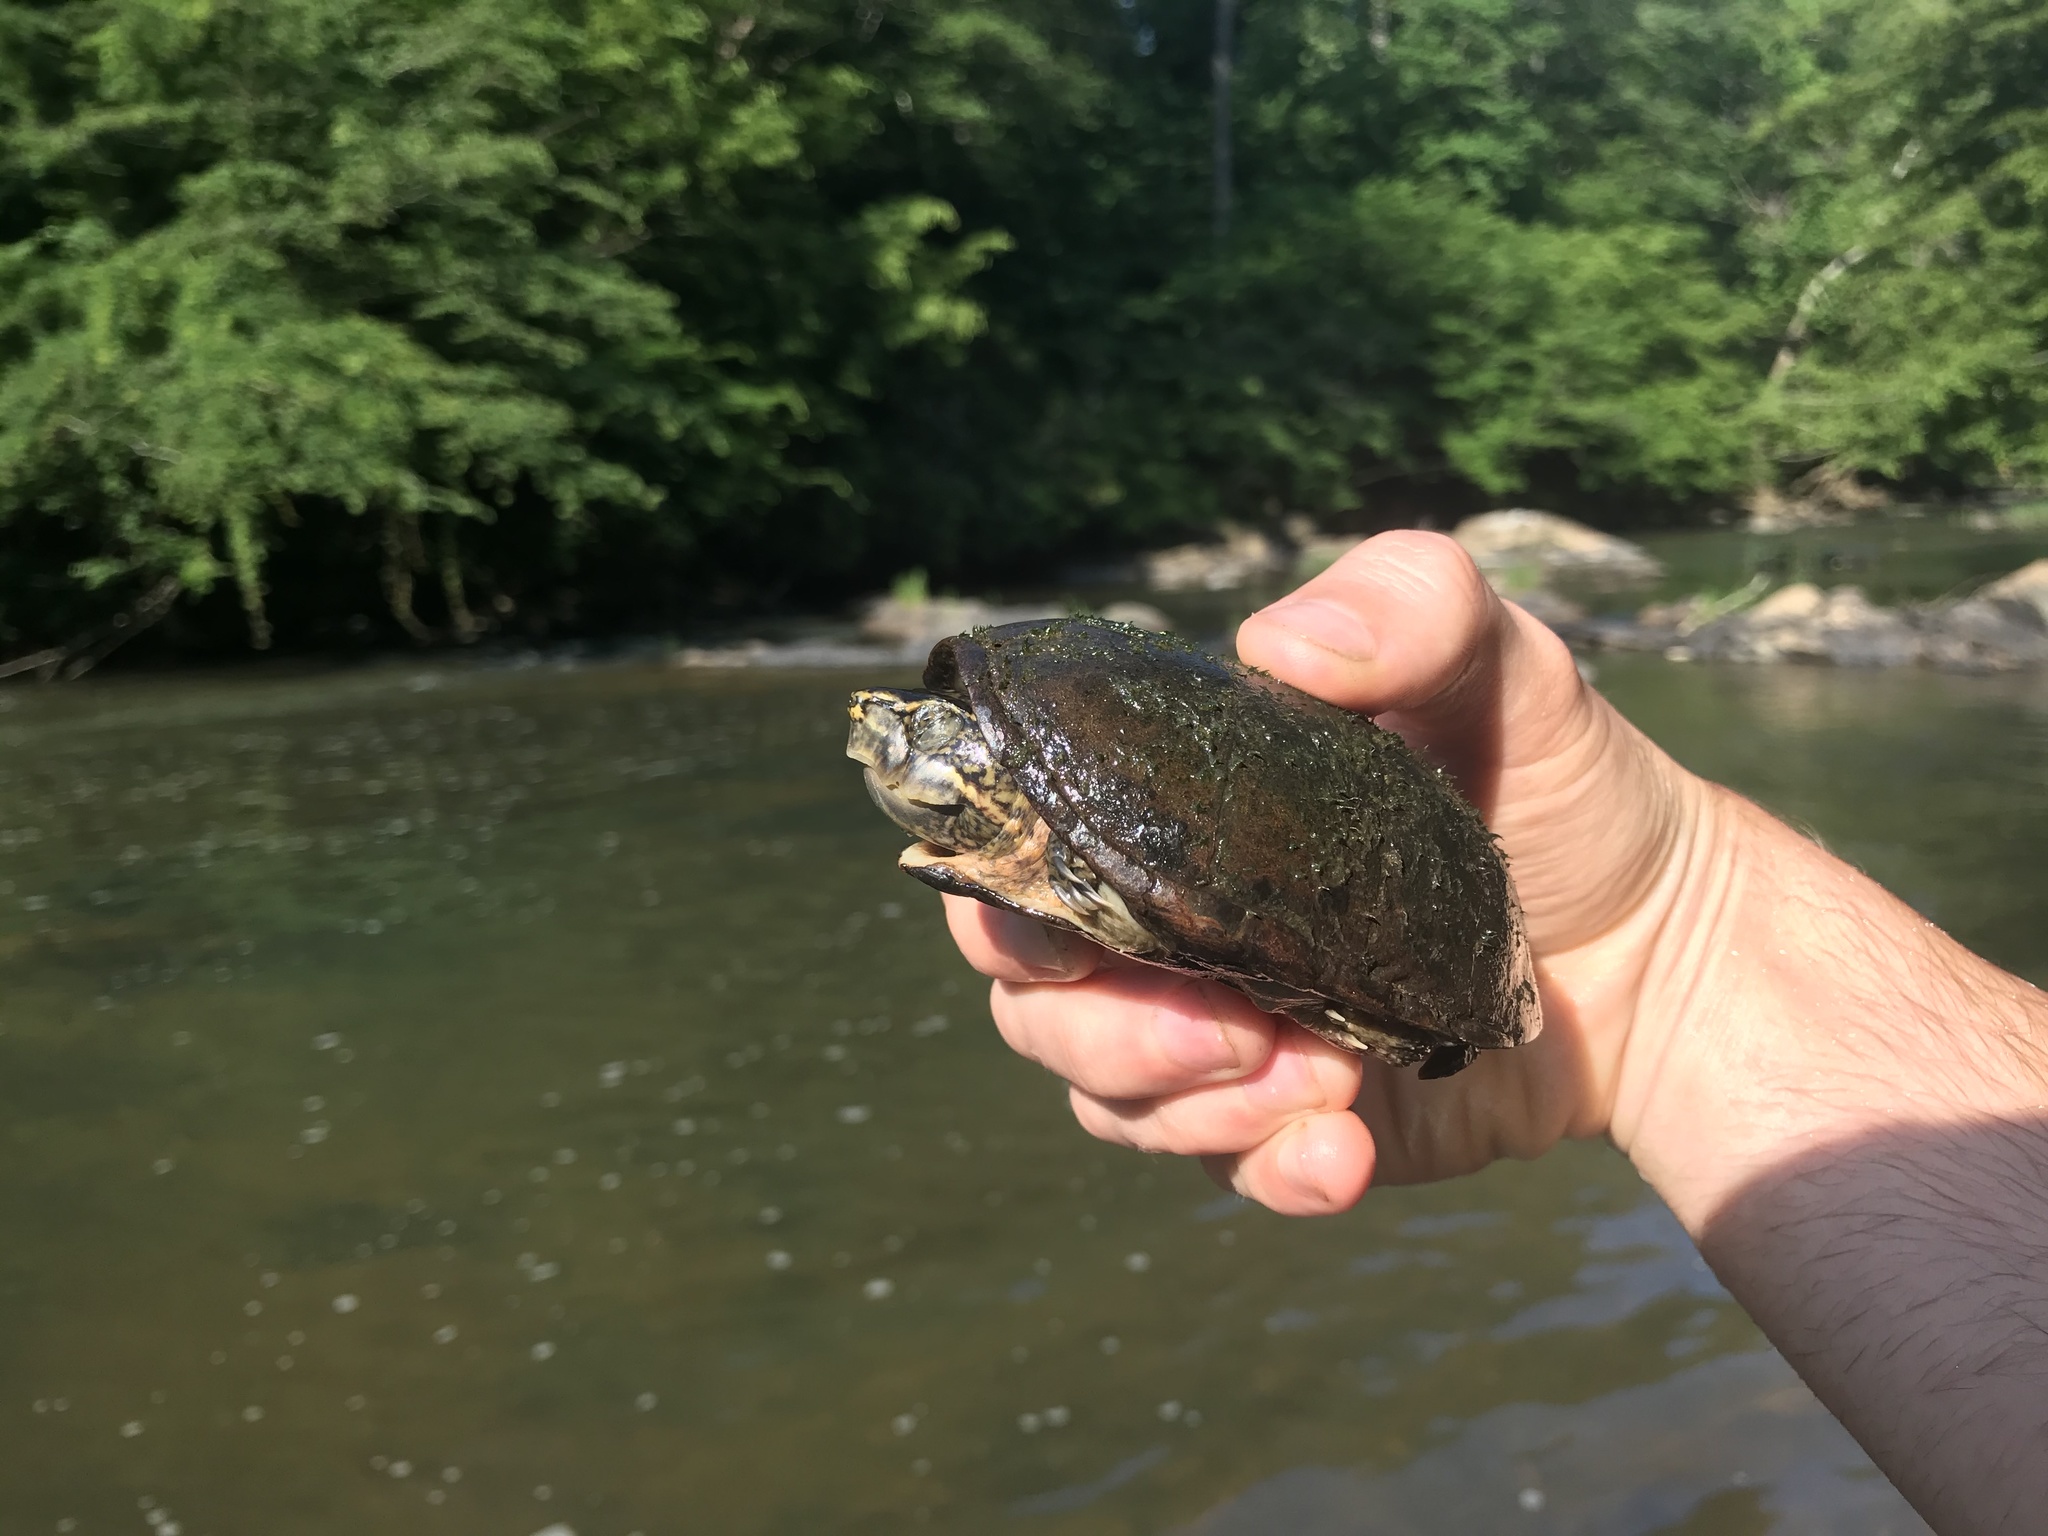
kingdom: Animalia
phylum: Chordata
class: Testudines
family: Kinosternidae
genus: Sternotherus
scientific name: Sternotherus odoratus
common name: Common musk turtle
